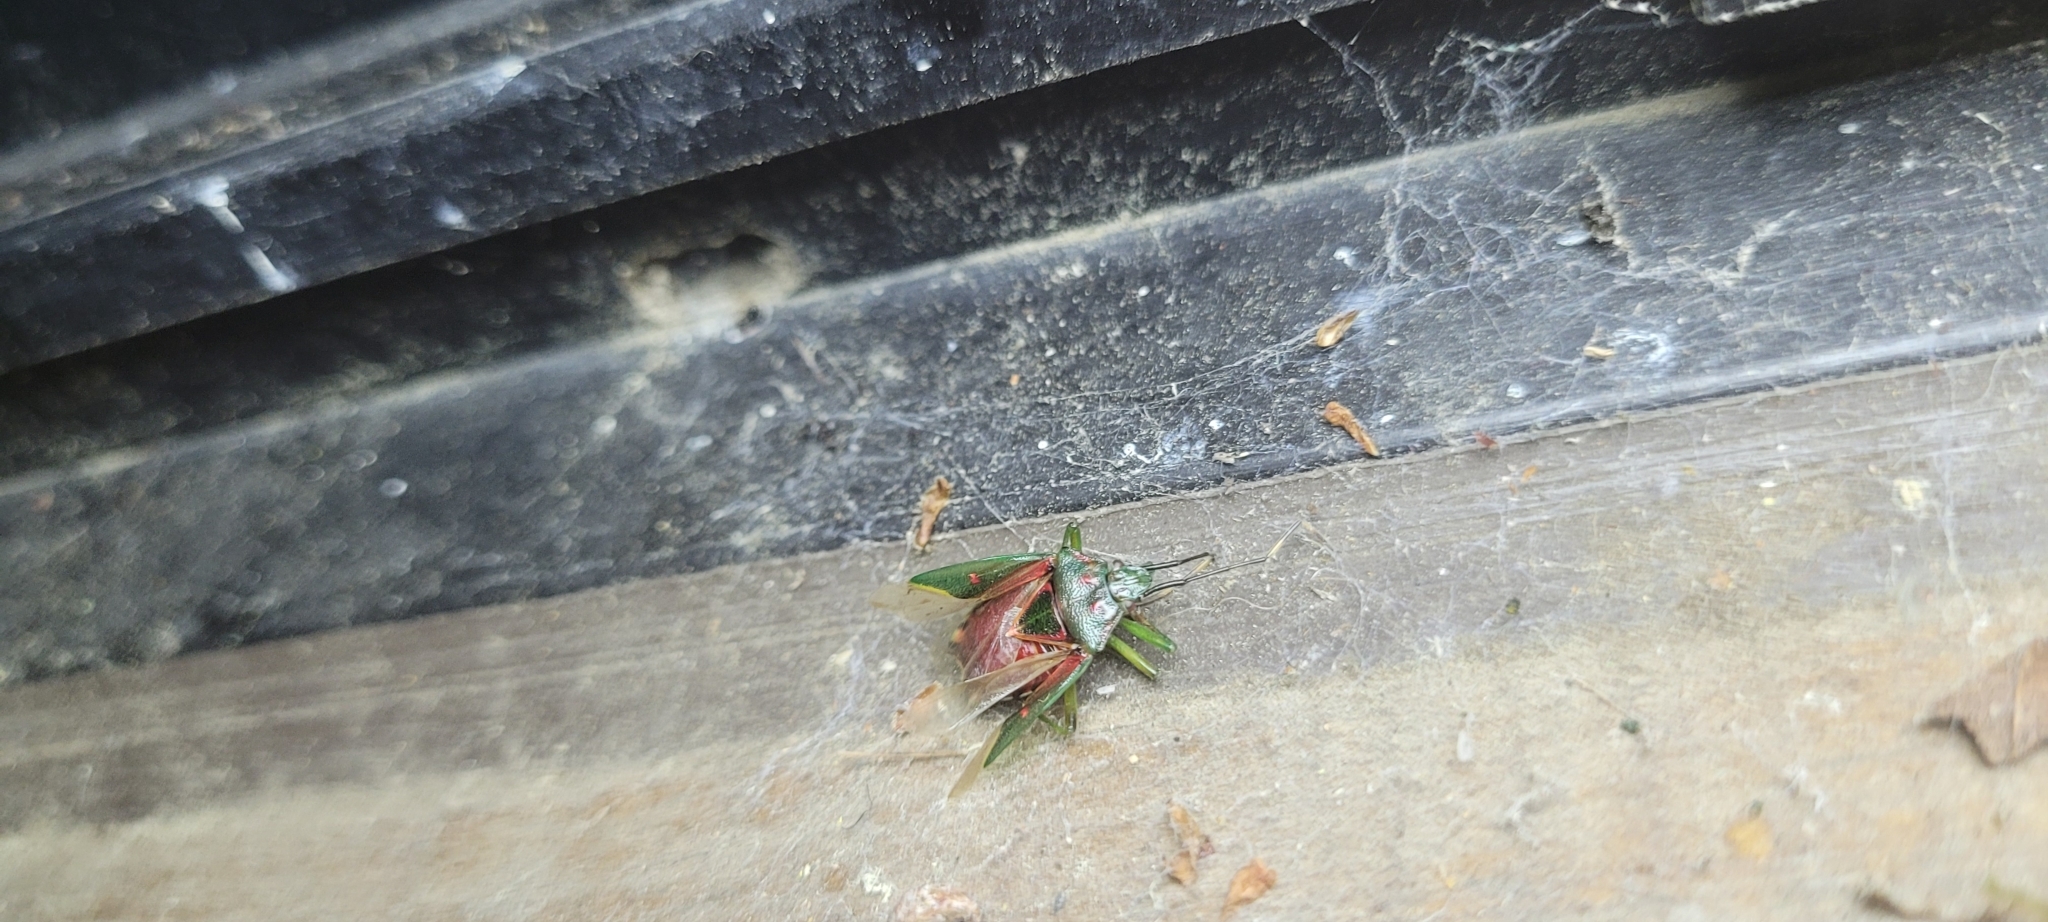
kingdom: Animalia
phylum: Arthropoda
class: Insecta
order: Hemiptera
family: Acanthosomatidae
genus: Planois
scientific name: Planois gayi
